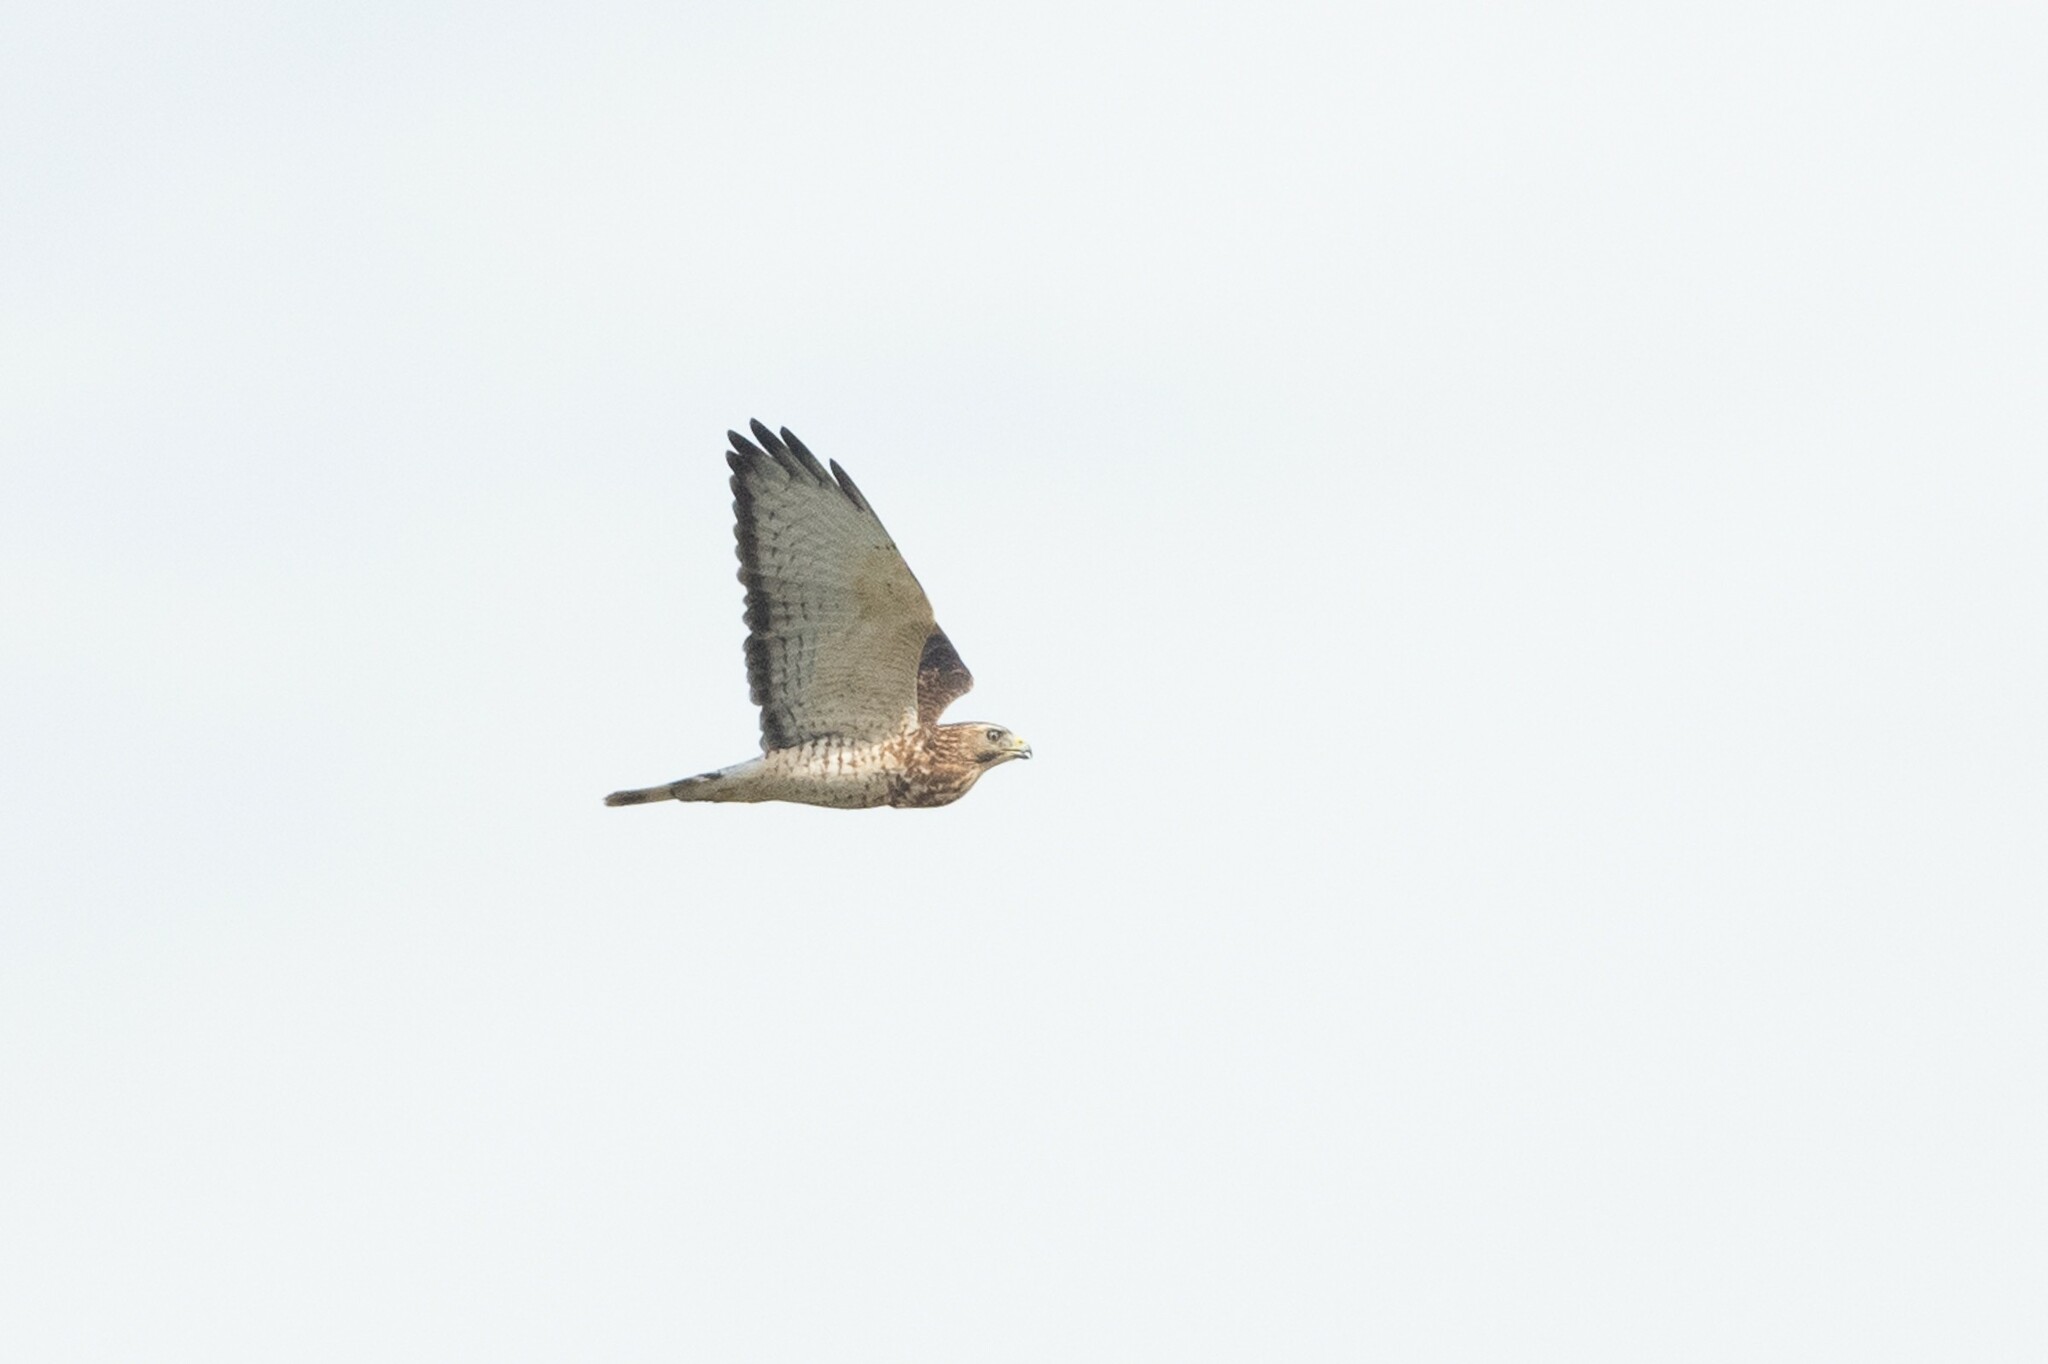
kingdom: Animalia
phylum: Chordata
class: Aves
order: Accipitriformes
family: Accipitridae
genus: Buteo
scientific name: Buteo platypterus
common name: Broad-winged hawk
